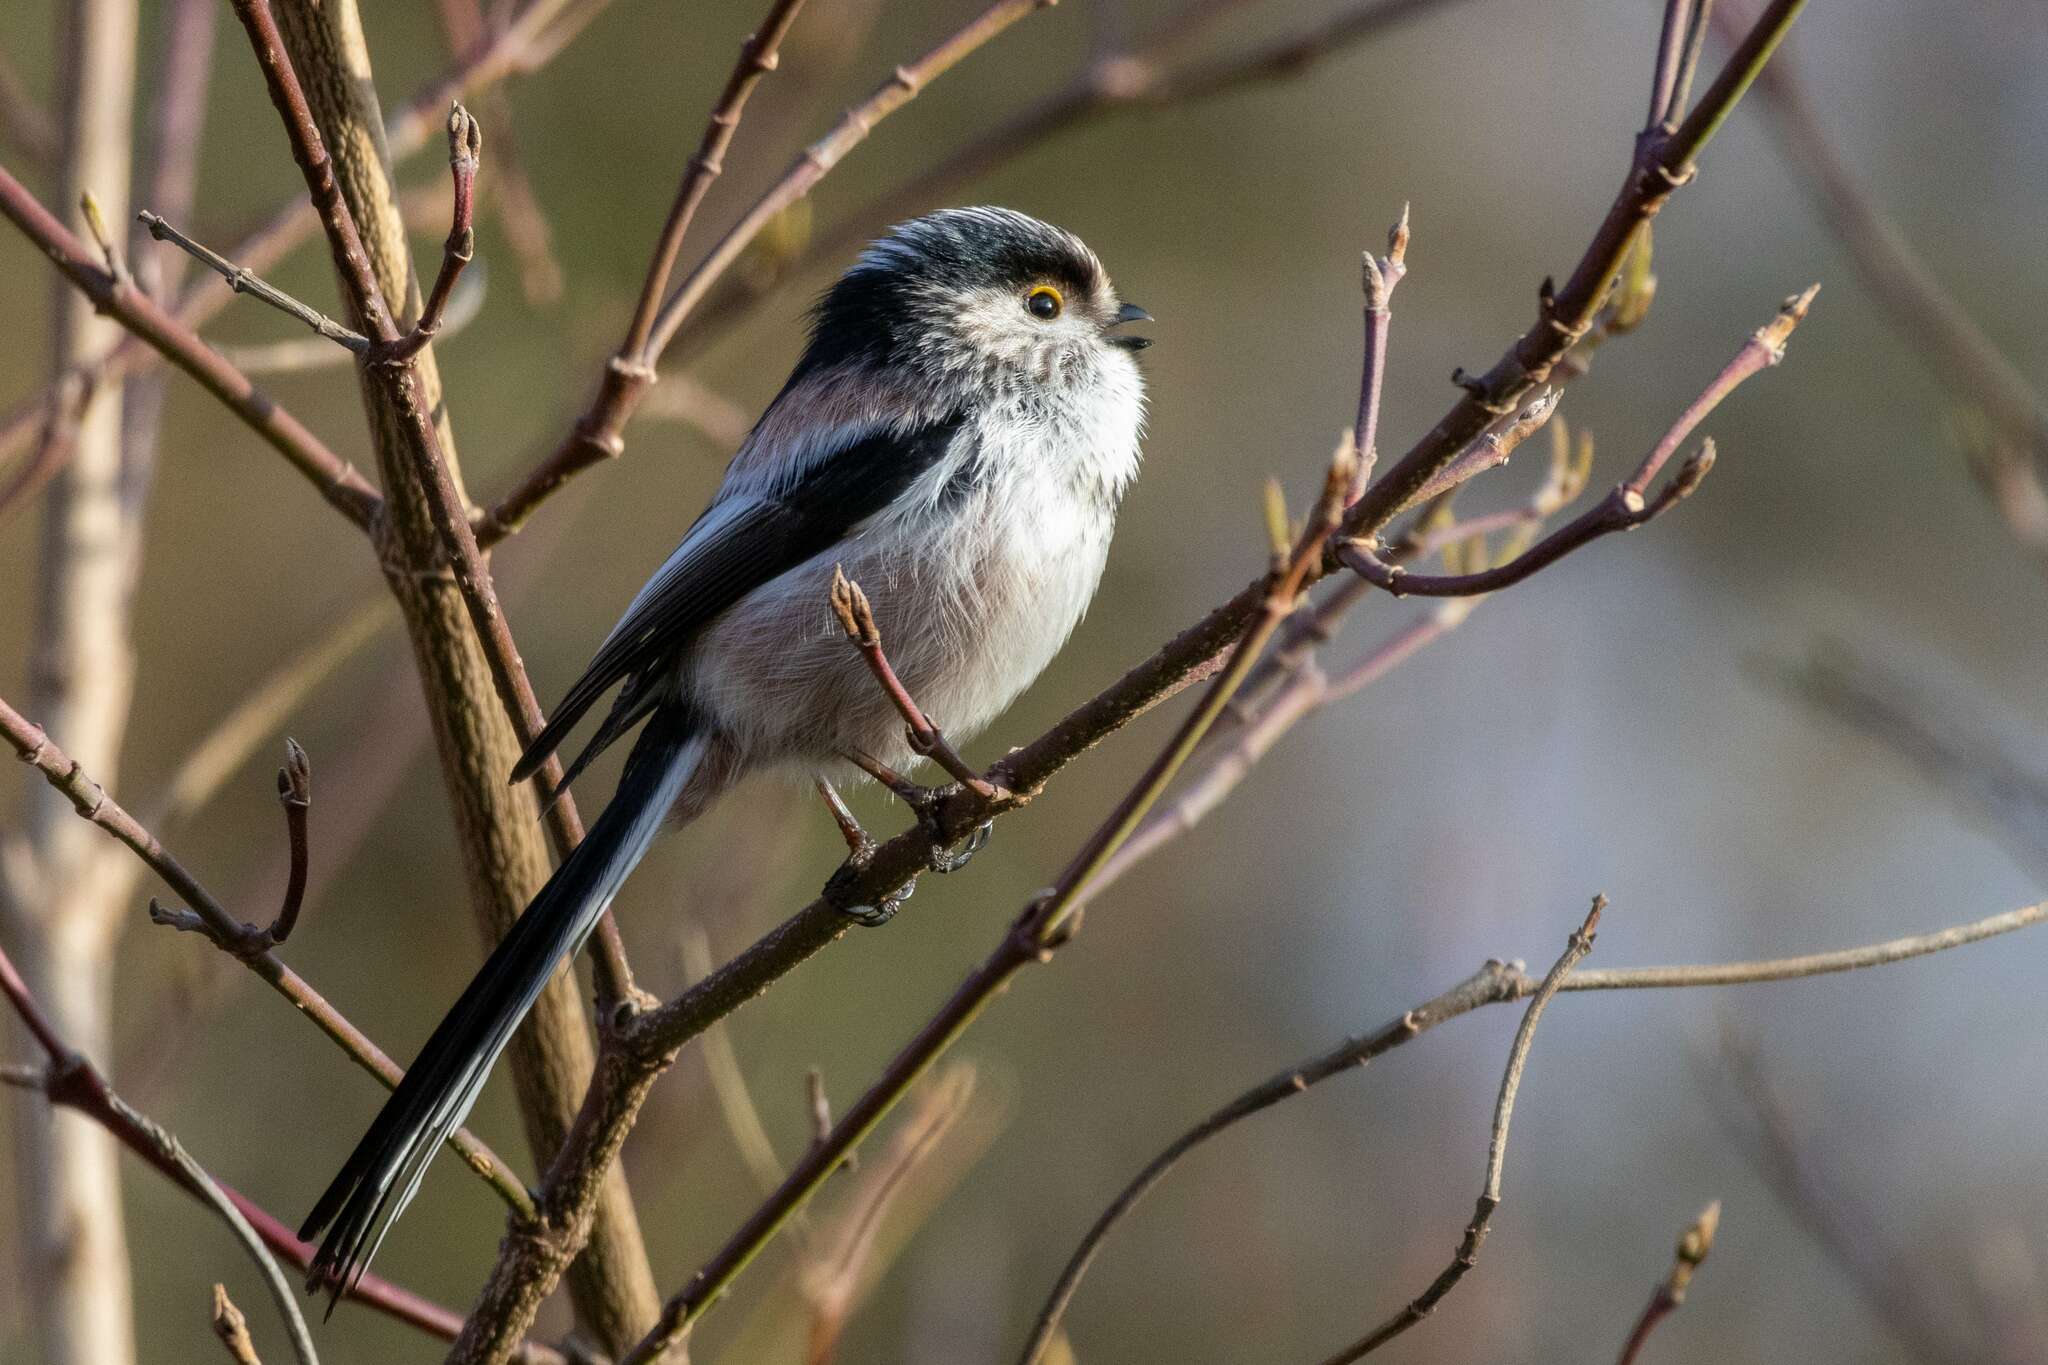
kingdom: Animalia
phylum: Chordata
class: Aves
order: Passeriformes
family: Aegithalidae
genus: Aegithalos
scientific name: Aegithalos caudatus
